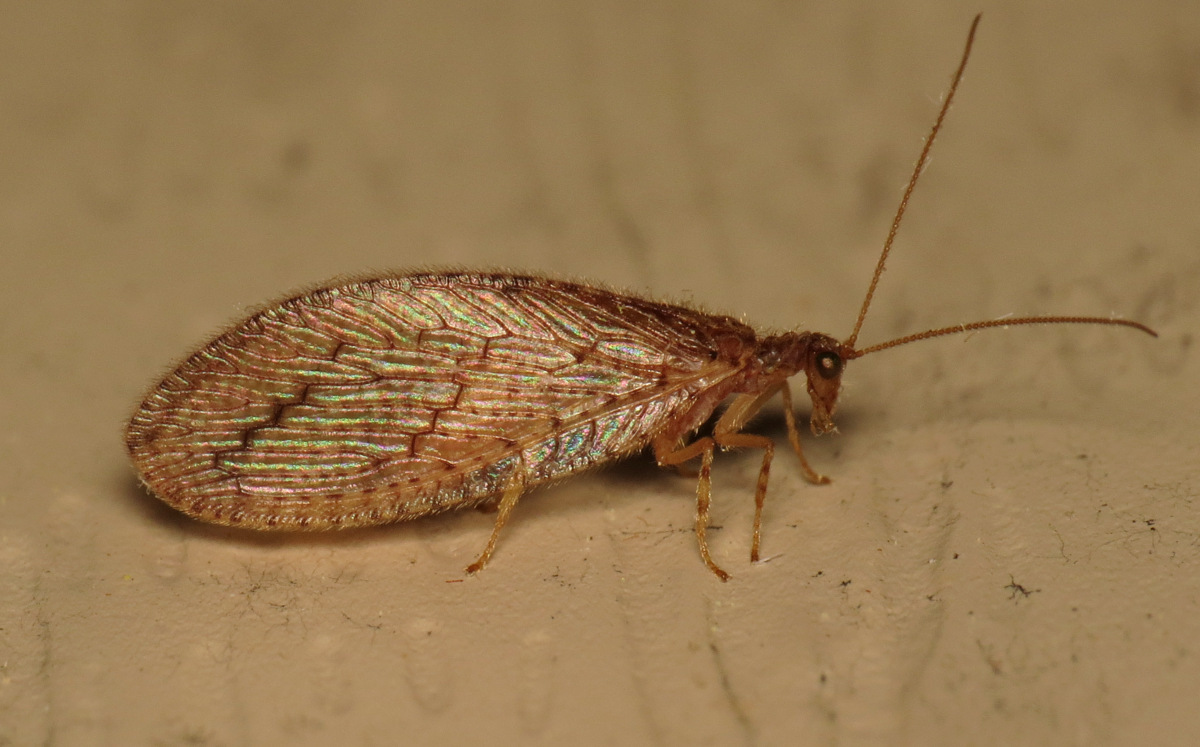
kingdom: Animalia
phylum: Arthropoda
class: Insecta
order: Neuroptera
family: Hemerobiidae
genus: Micromus
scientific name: Micromus posticus
